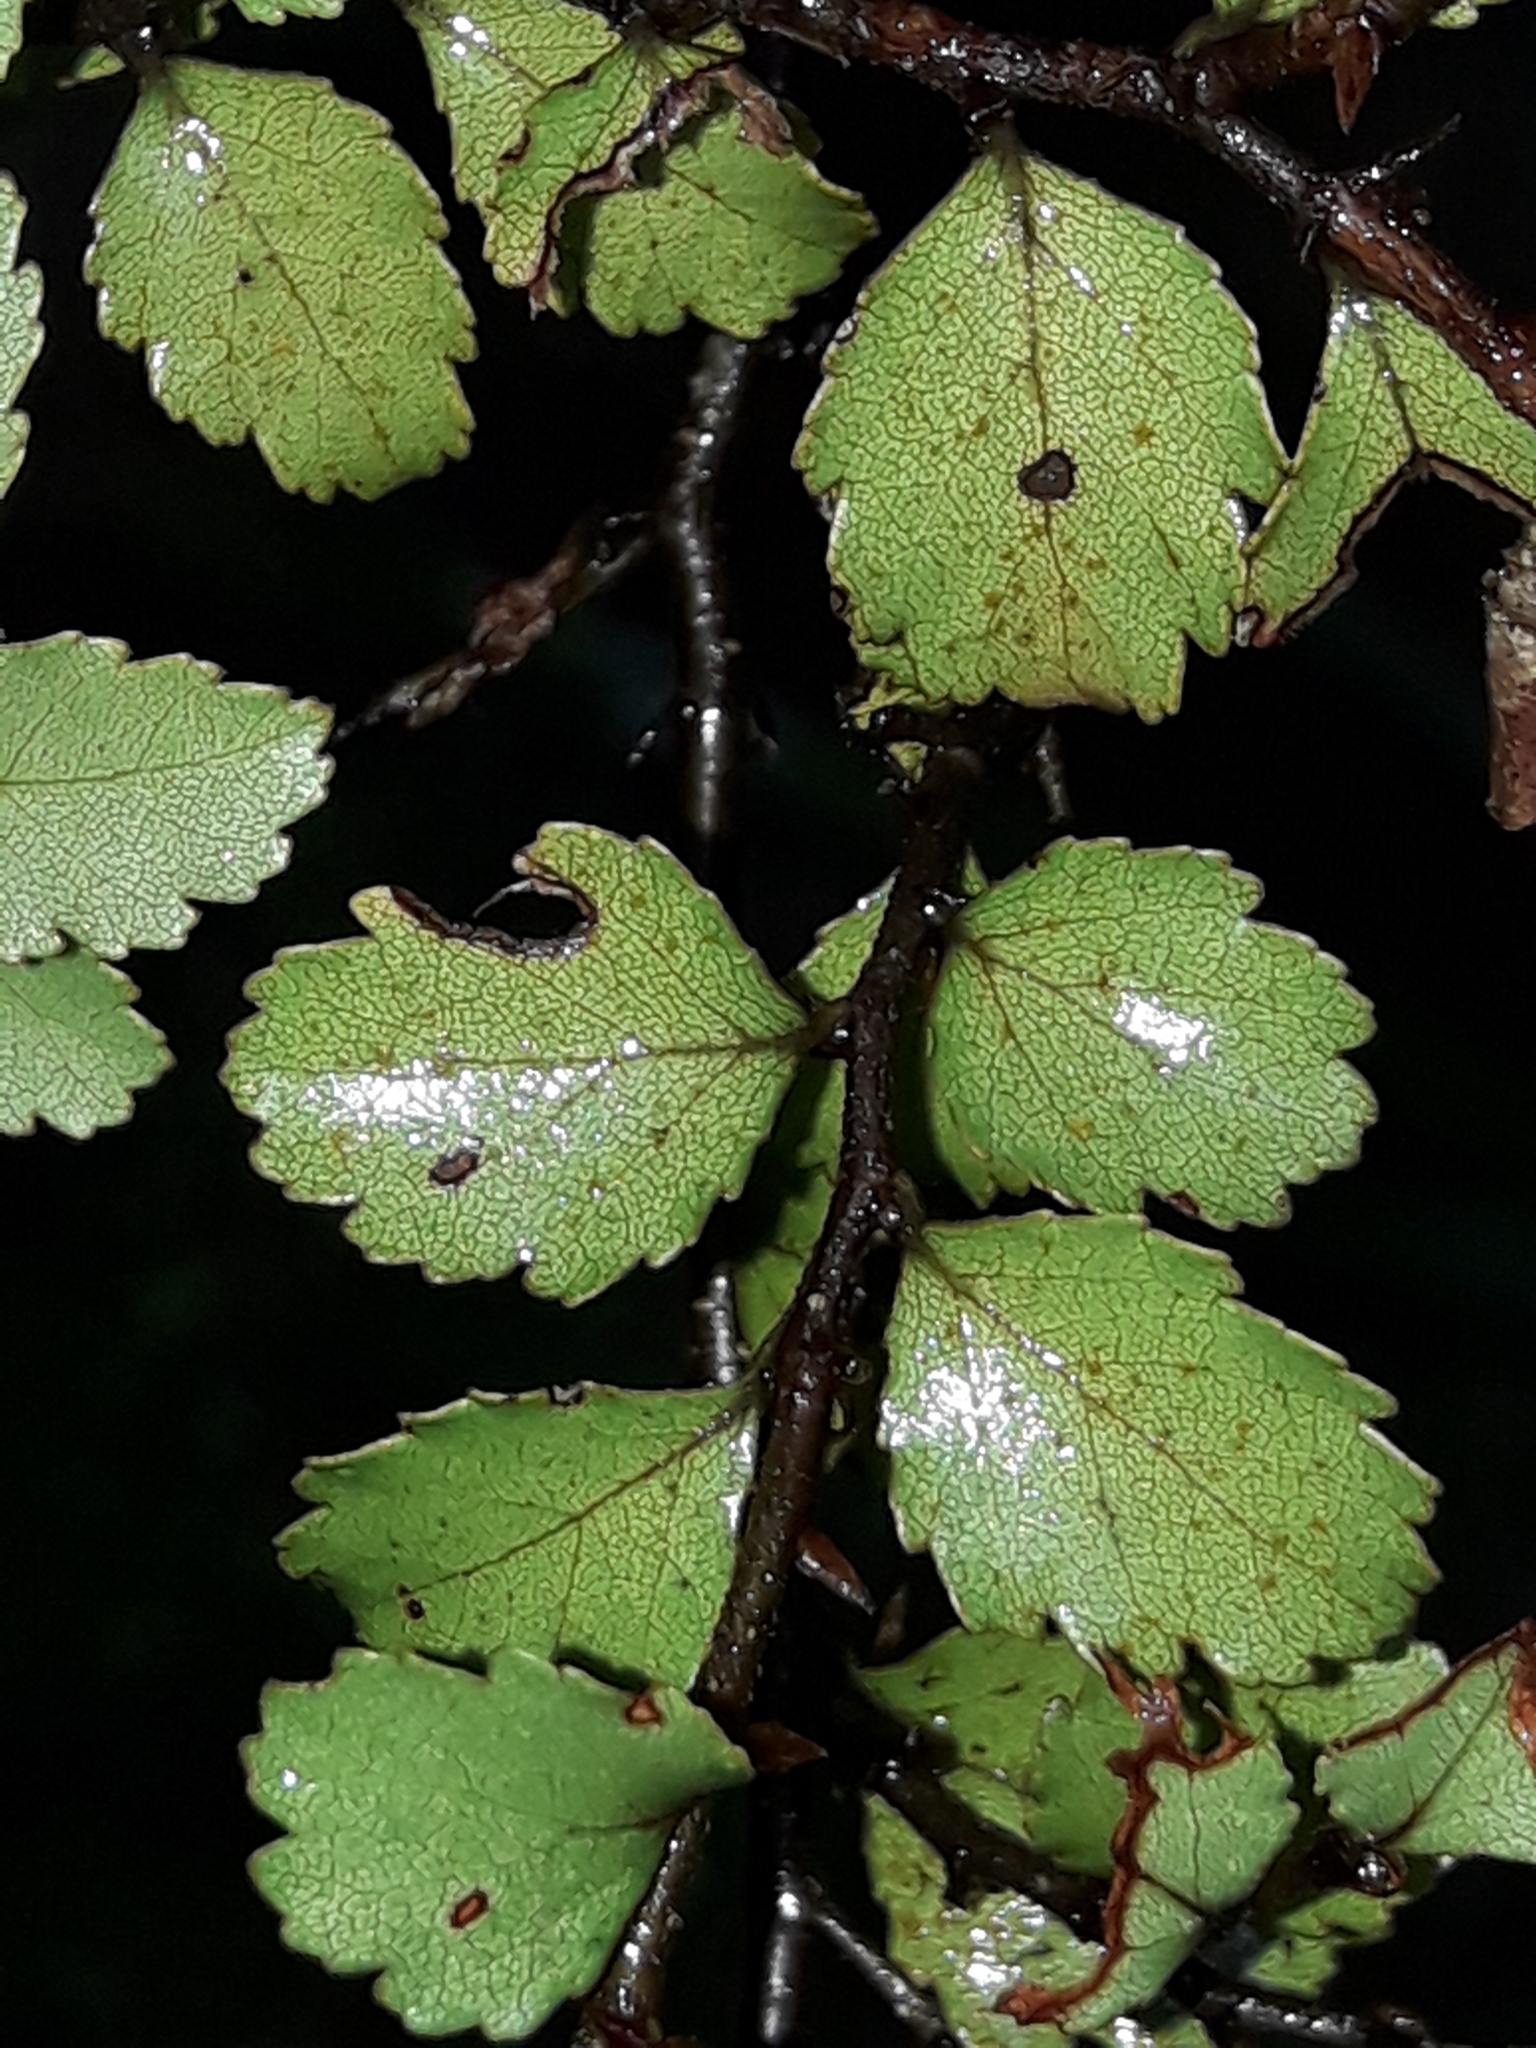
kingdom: Plantae
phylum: Tracheophyta
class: Magnoliopsida
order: Fagales
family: Nothofagaceae
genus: Nothofagus
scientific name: Nothofagus menziesii
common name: Silver beech
